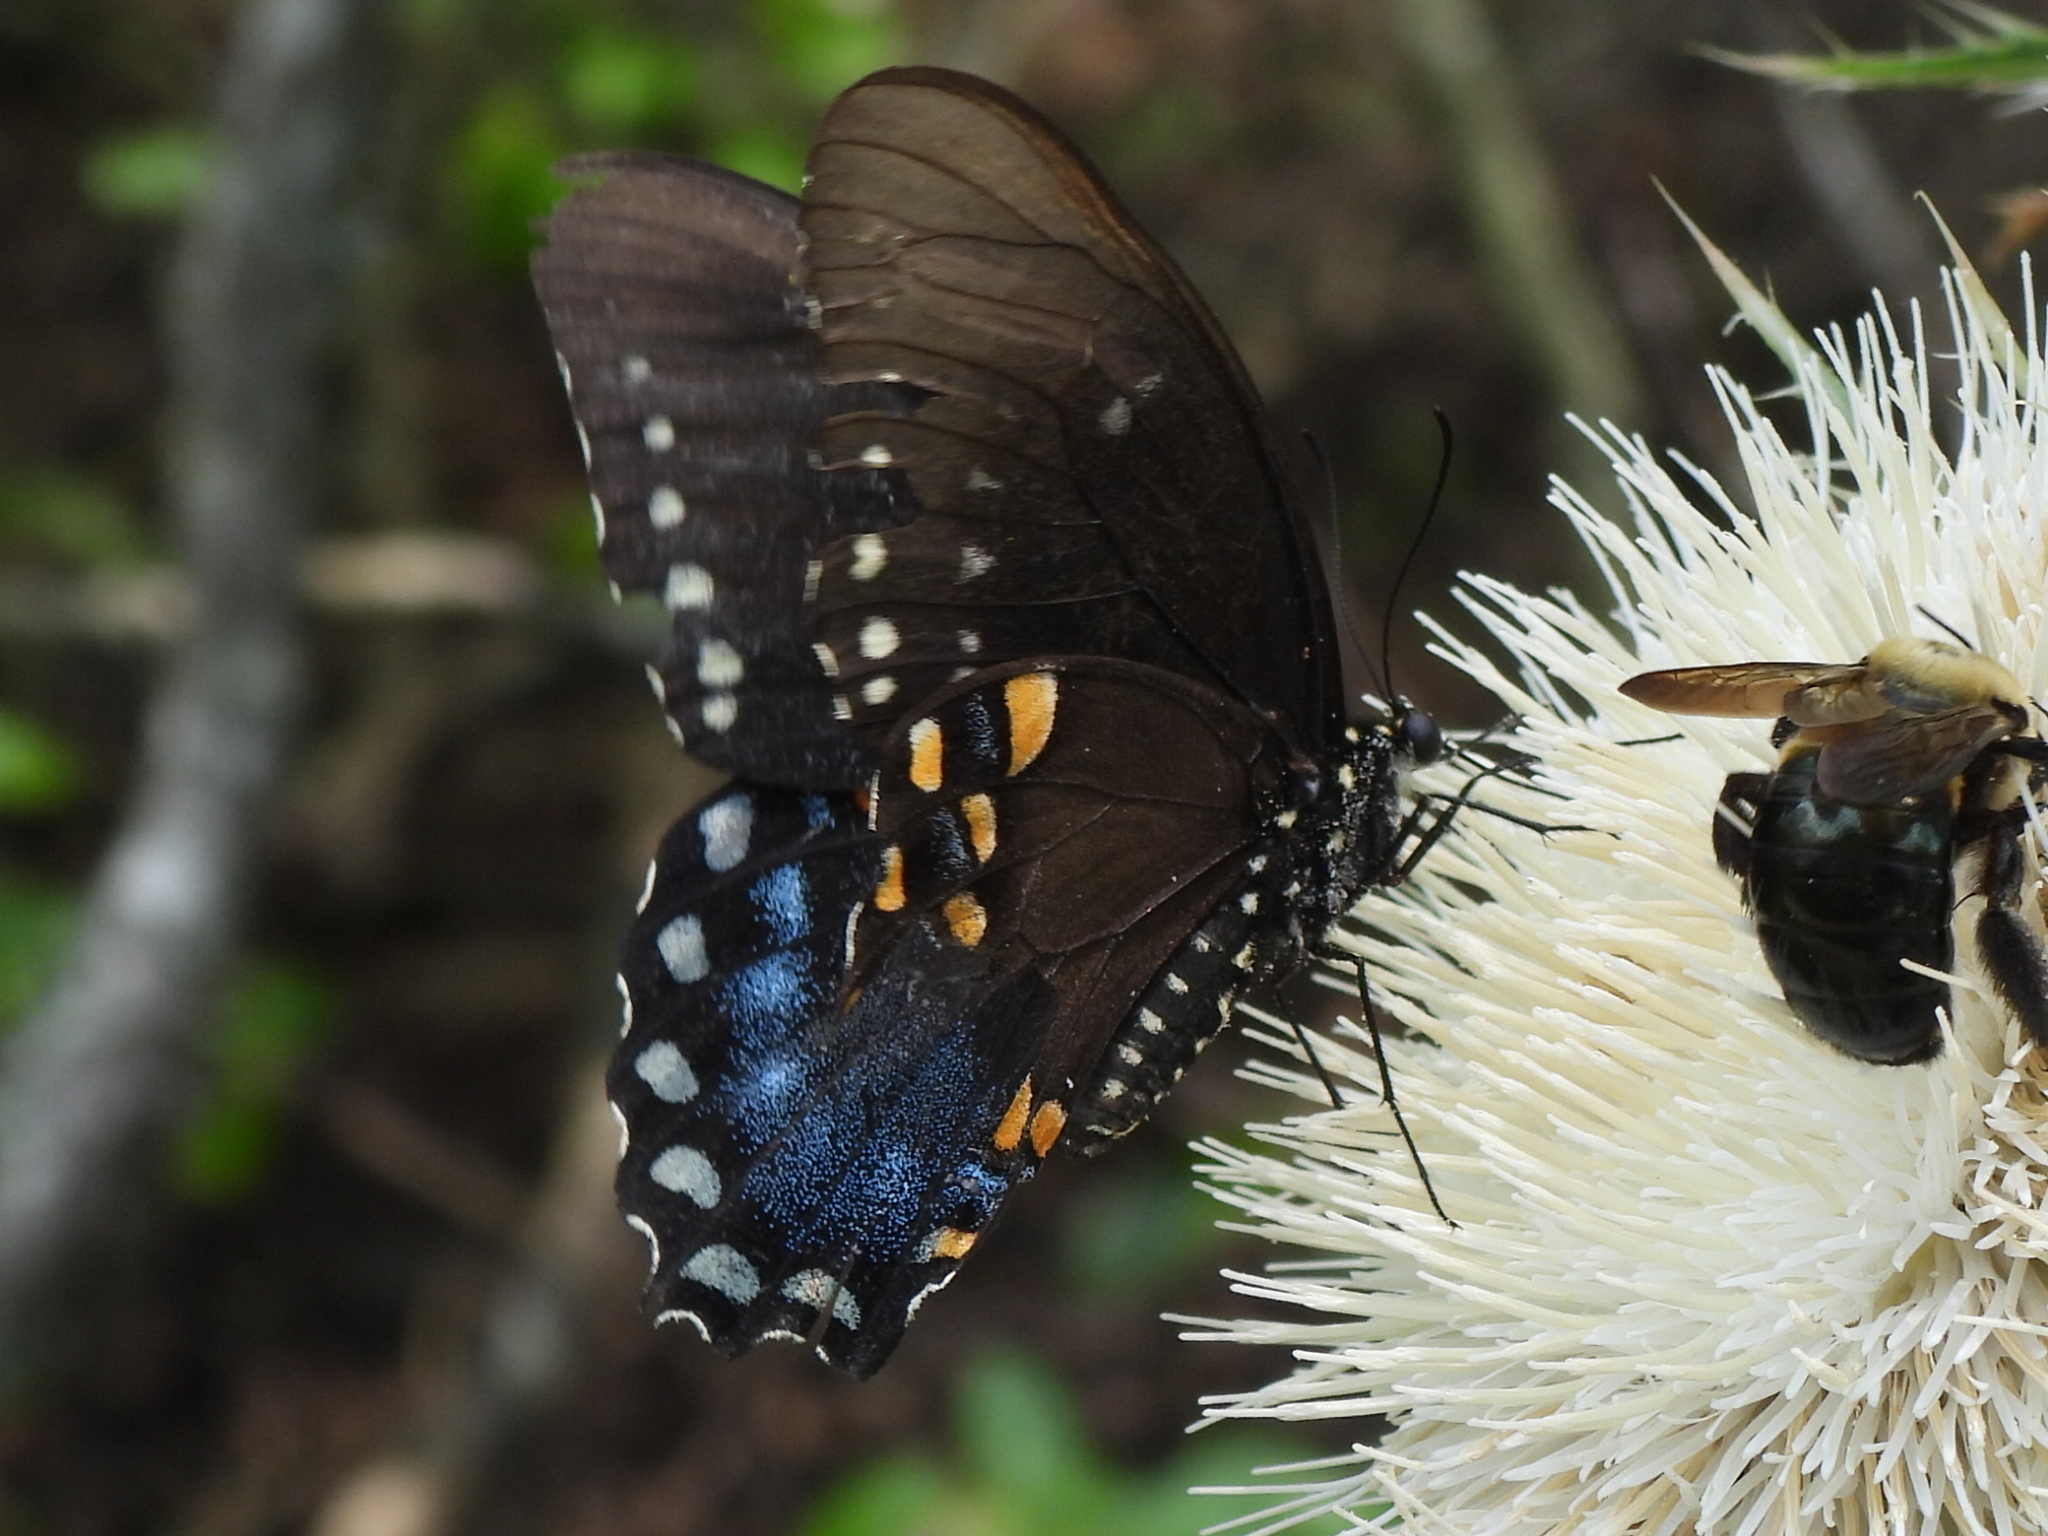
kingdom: Animalia
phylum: Arthropoda
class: Insecta
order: Lepidoptera
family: Papilionidae
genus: Papilio
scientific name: Papilio troilus
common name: Spicebush swallowtail
